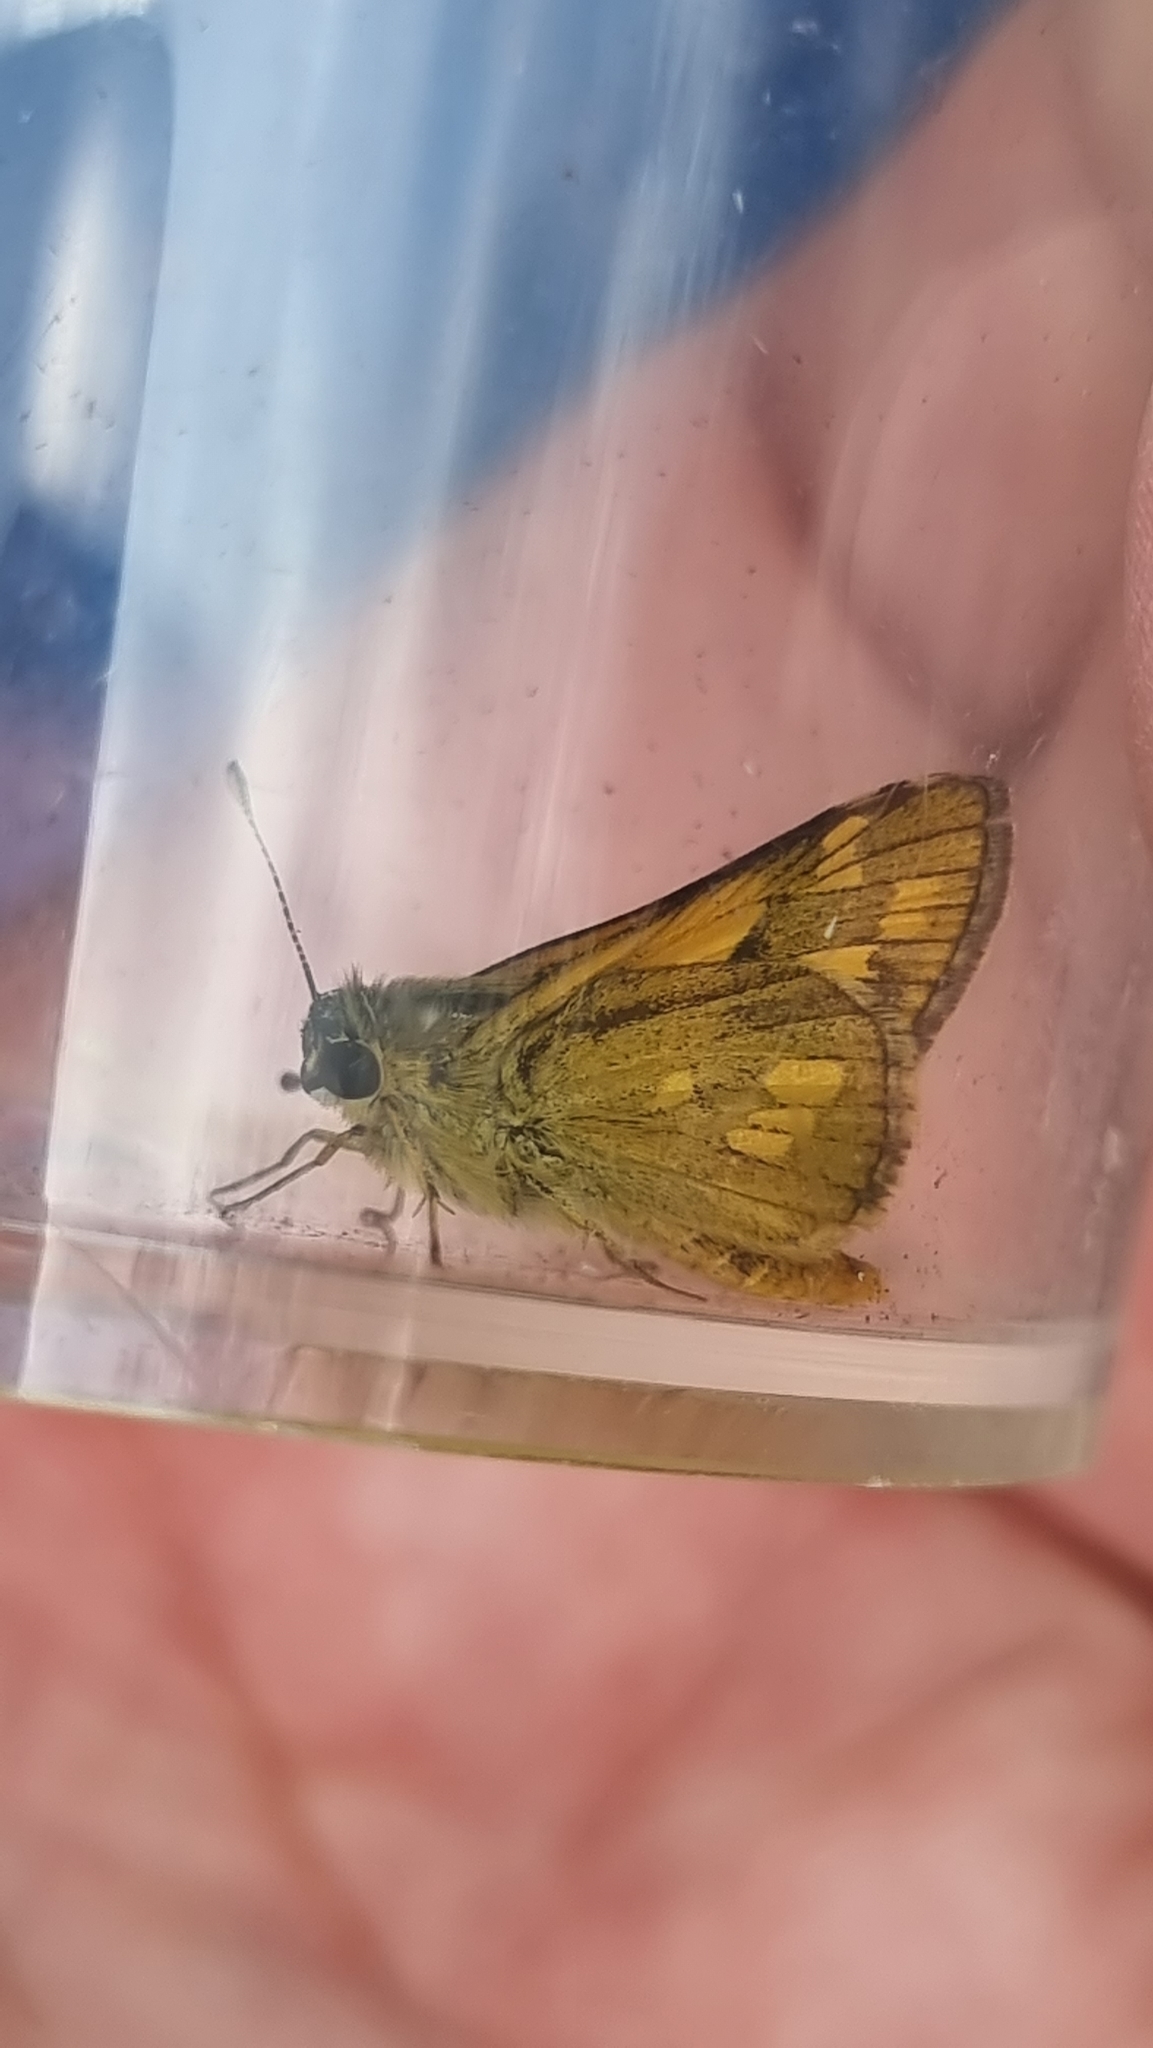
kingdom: Animalia
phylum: Arthropoda
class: Insecta
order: Lepidoptera
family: Hesperiidae
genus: Taractrocera
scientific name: Taractrocera ina
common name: Ina grass-dart
